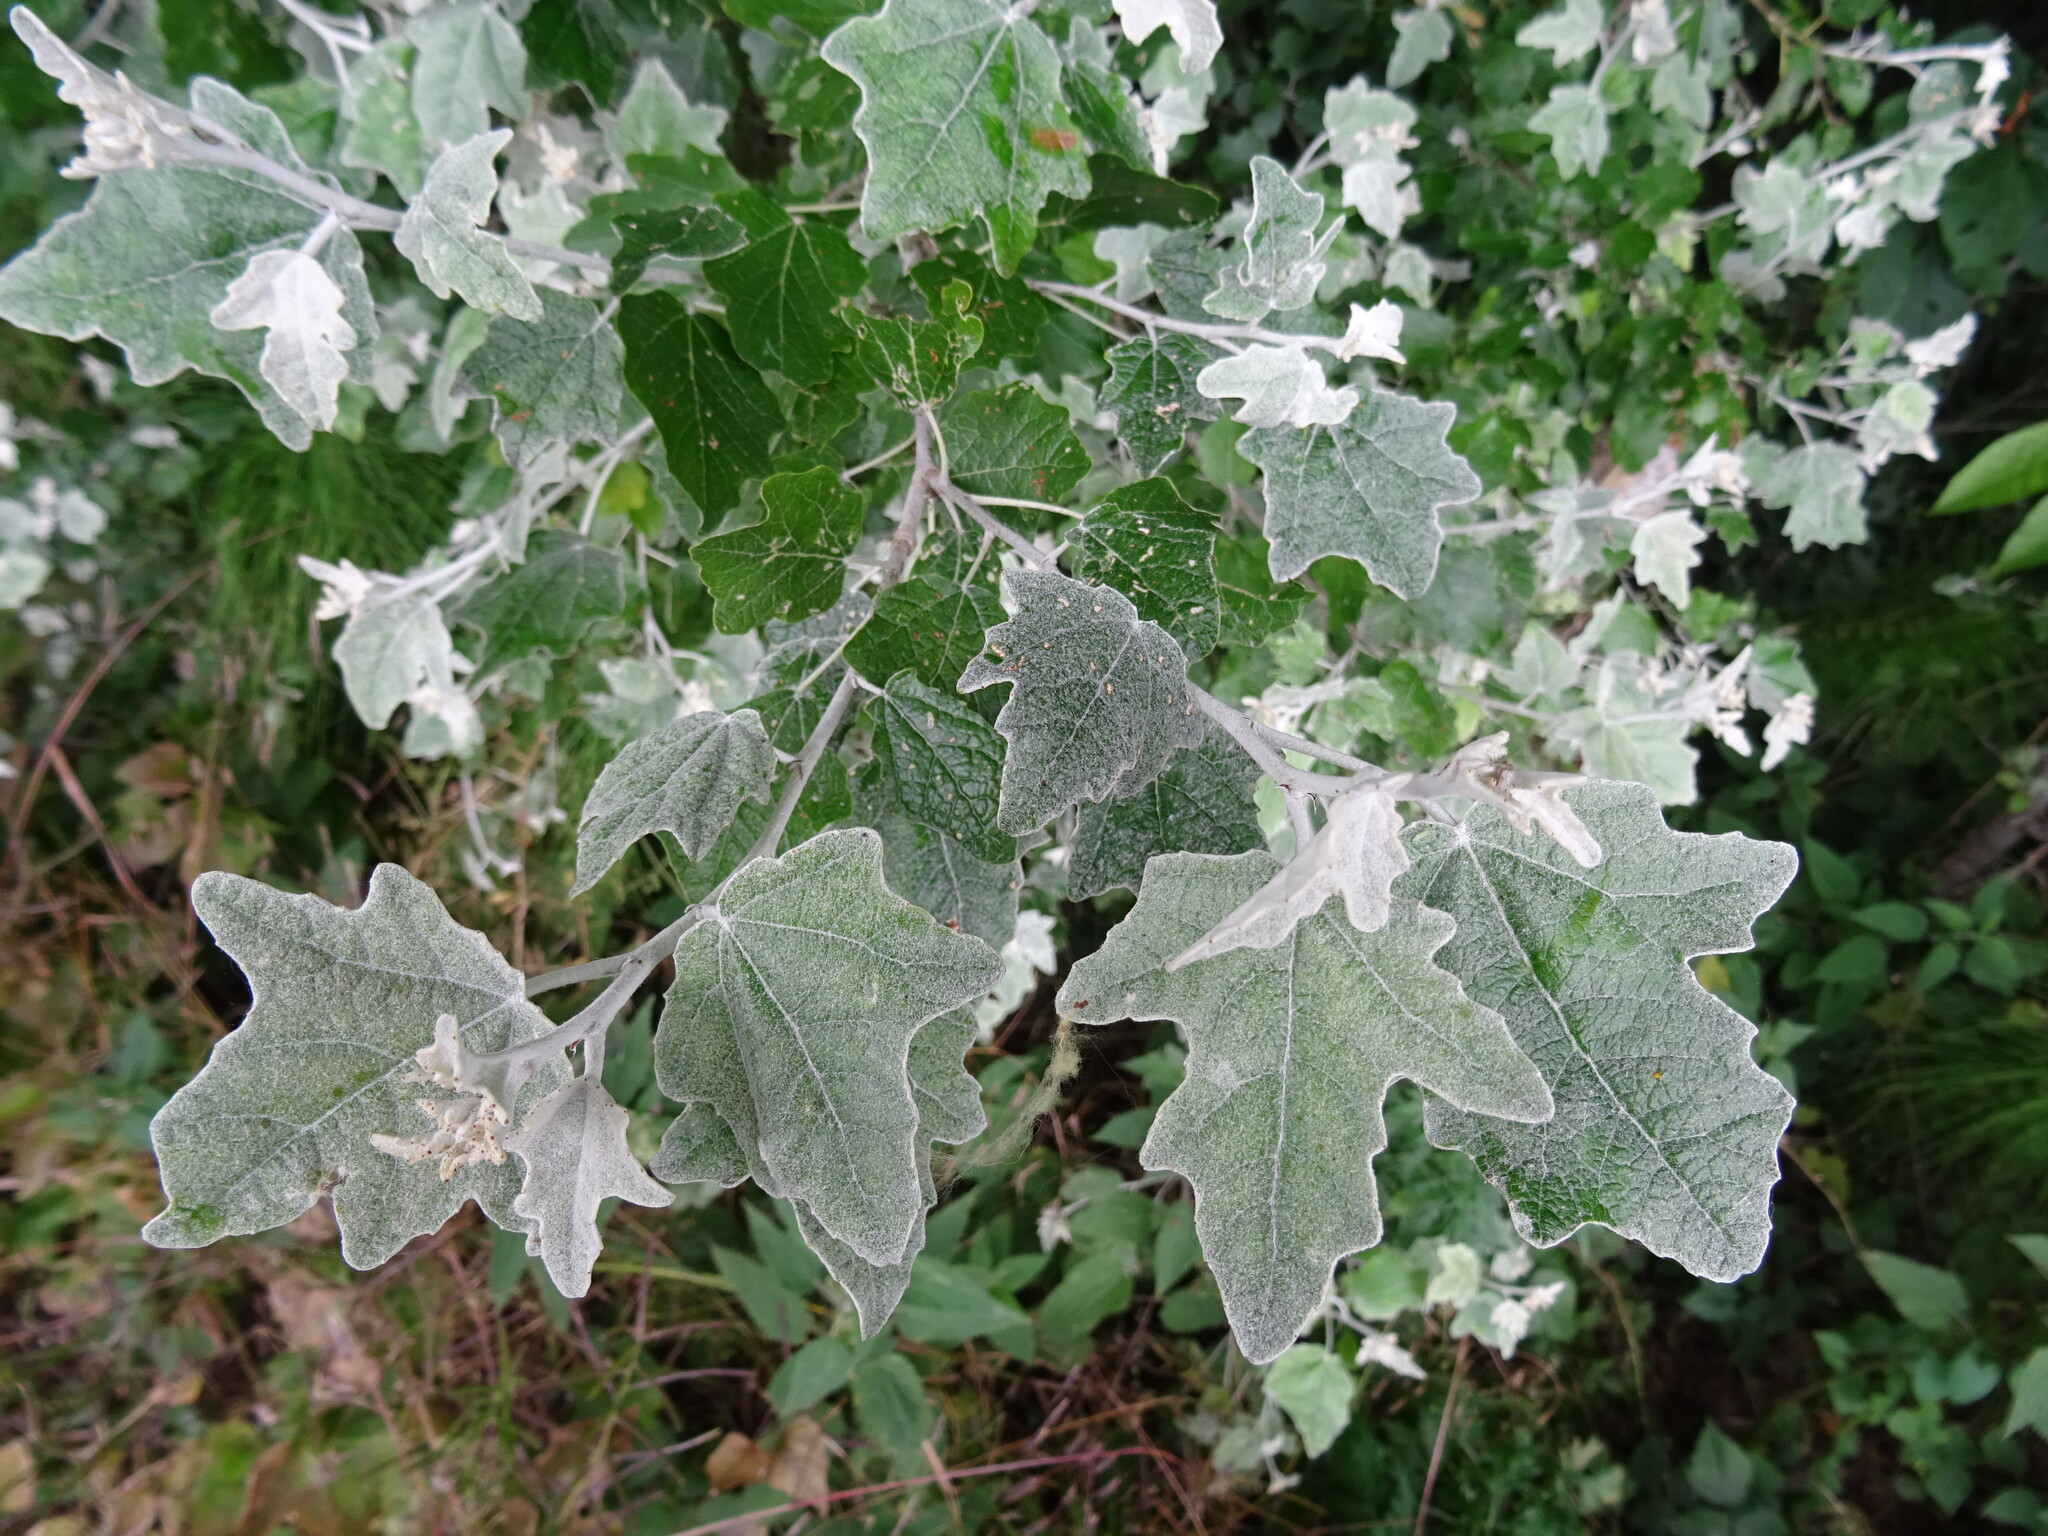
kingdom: Plantae
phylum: Tracheophyta
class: Magnoliopsida
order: Malpighiales
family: Salicaceae
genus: Populus
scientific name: Populus alba
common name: White poplar
